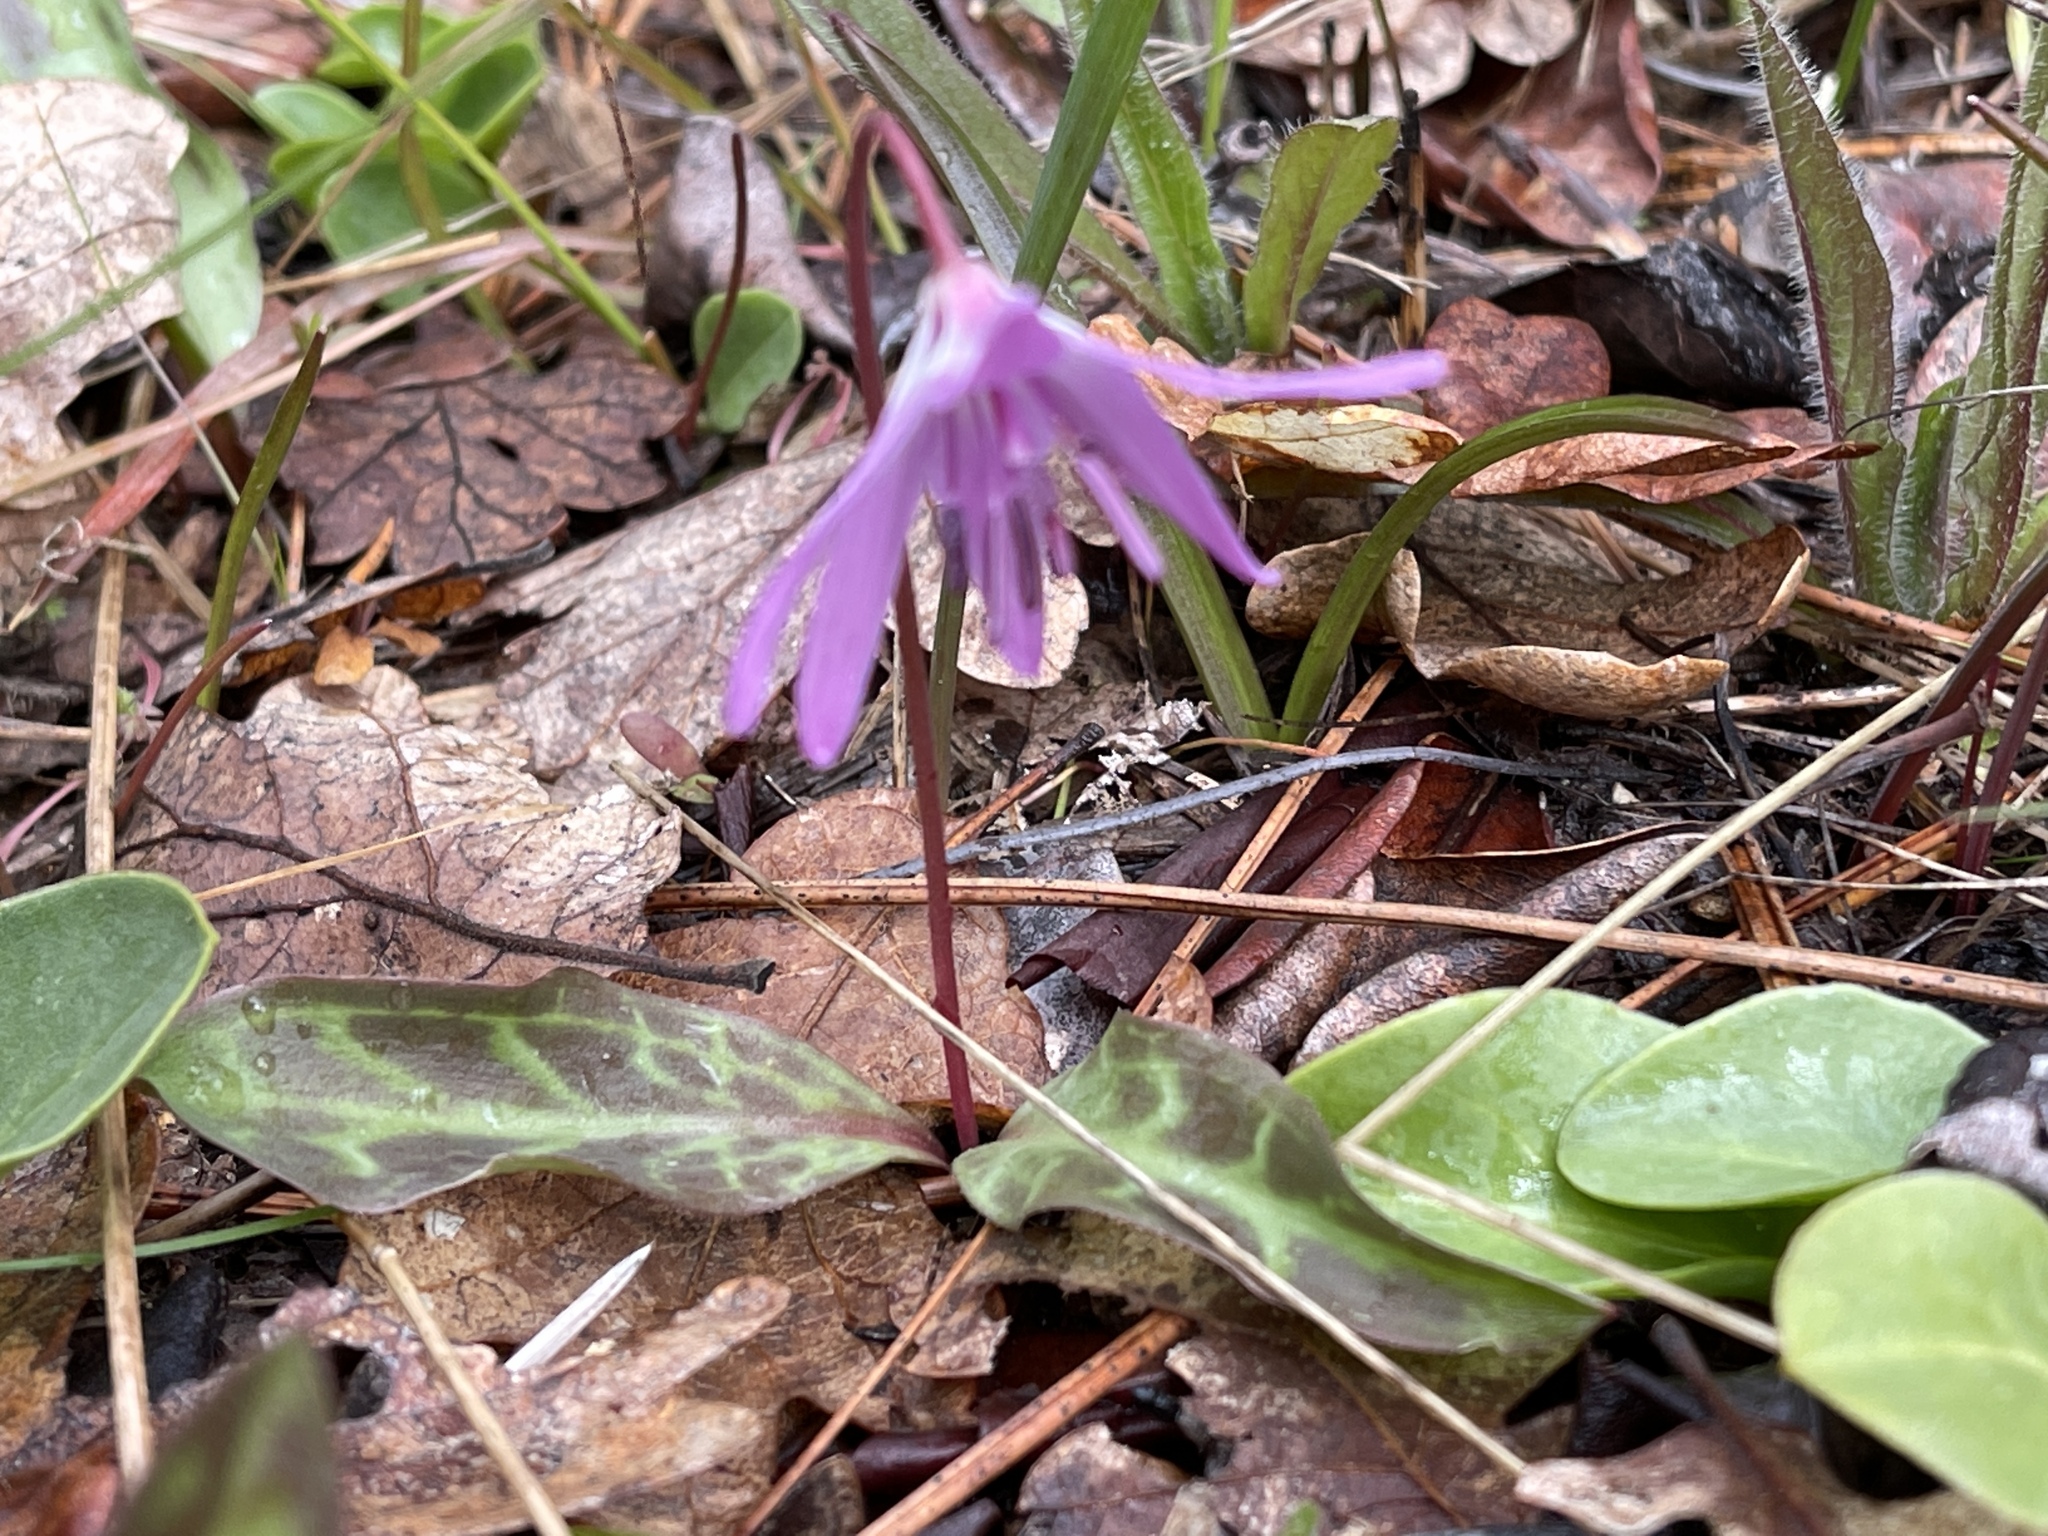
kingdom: Plantae
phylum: Tracheophyta
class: Liliopsida
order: Liliales
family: Liliaceae
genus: Erythronium
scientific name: Erythronium hendersonii
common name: Henderson's fawn-lily
